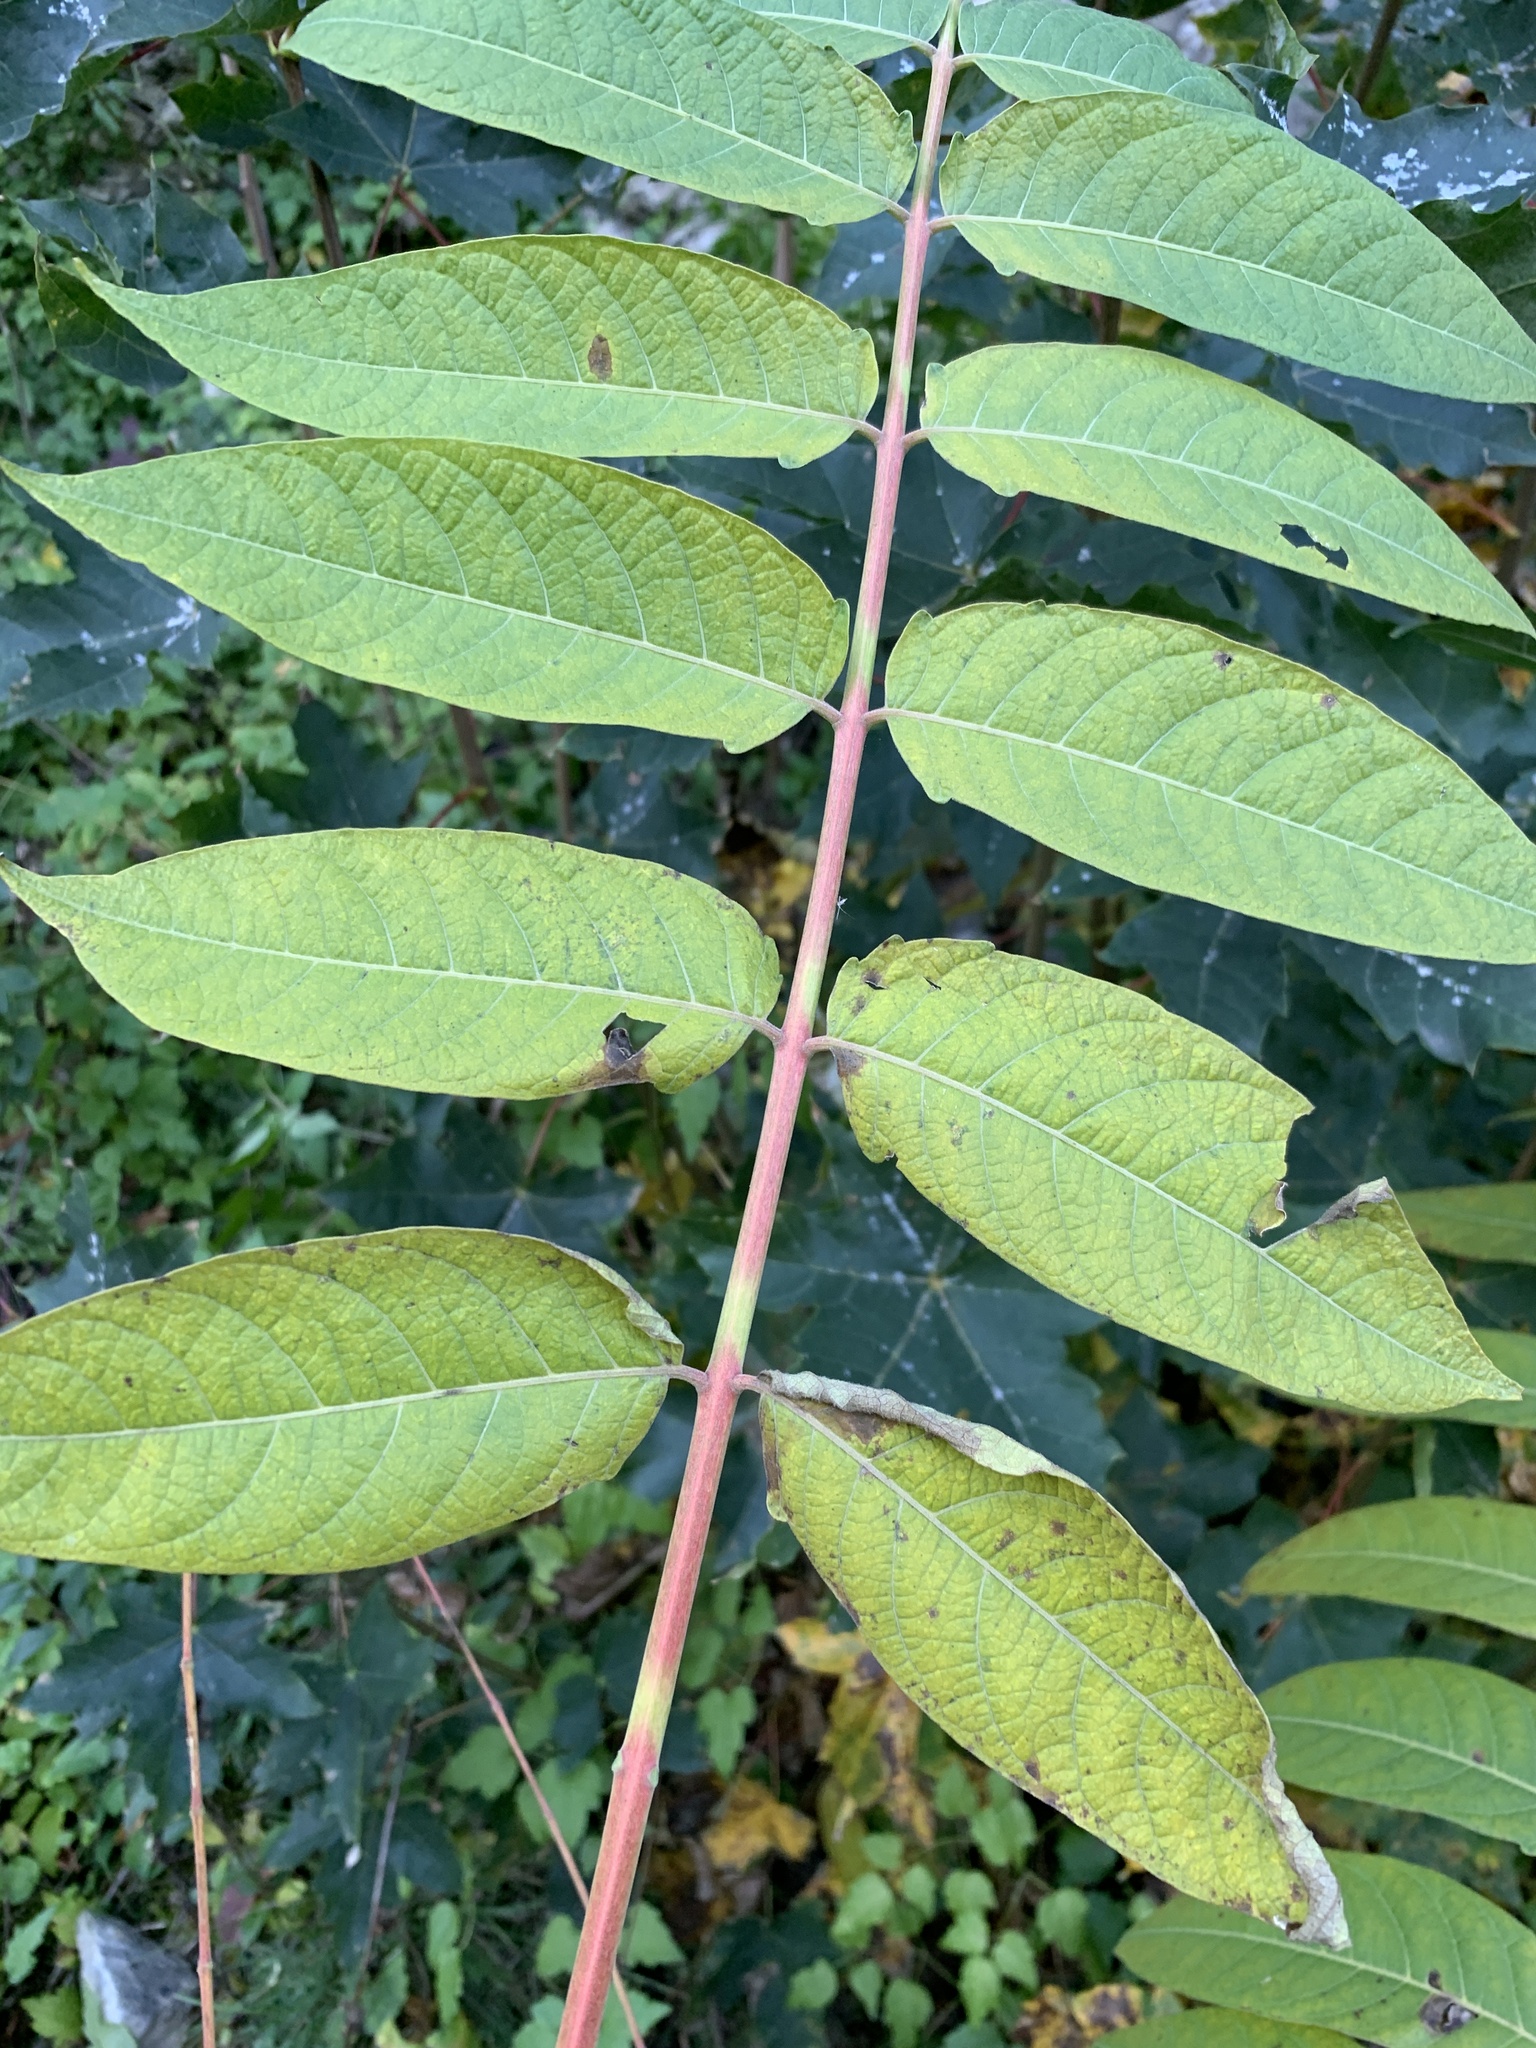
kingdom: Plantae
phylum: Tracheophyta
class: Magnoliopsida
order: Sapindales
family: Simaroubaceae
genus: Ailanthus
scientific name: Ailanthus altissima
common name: Tree-of-heaven
